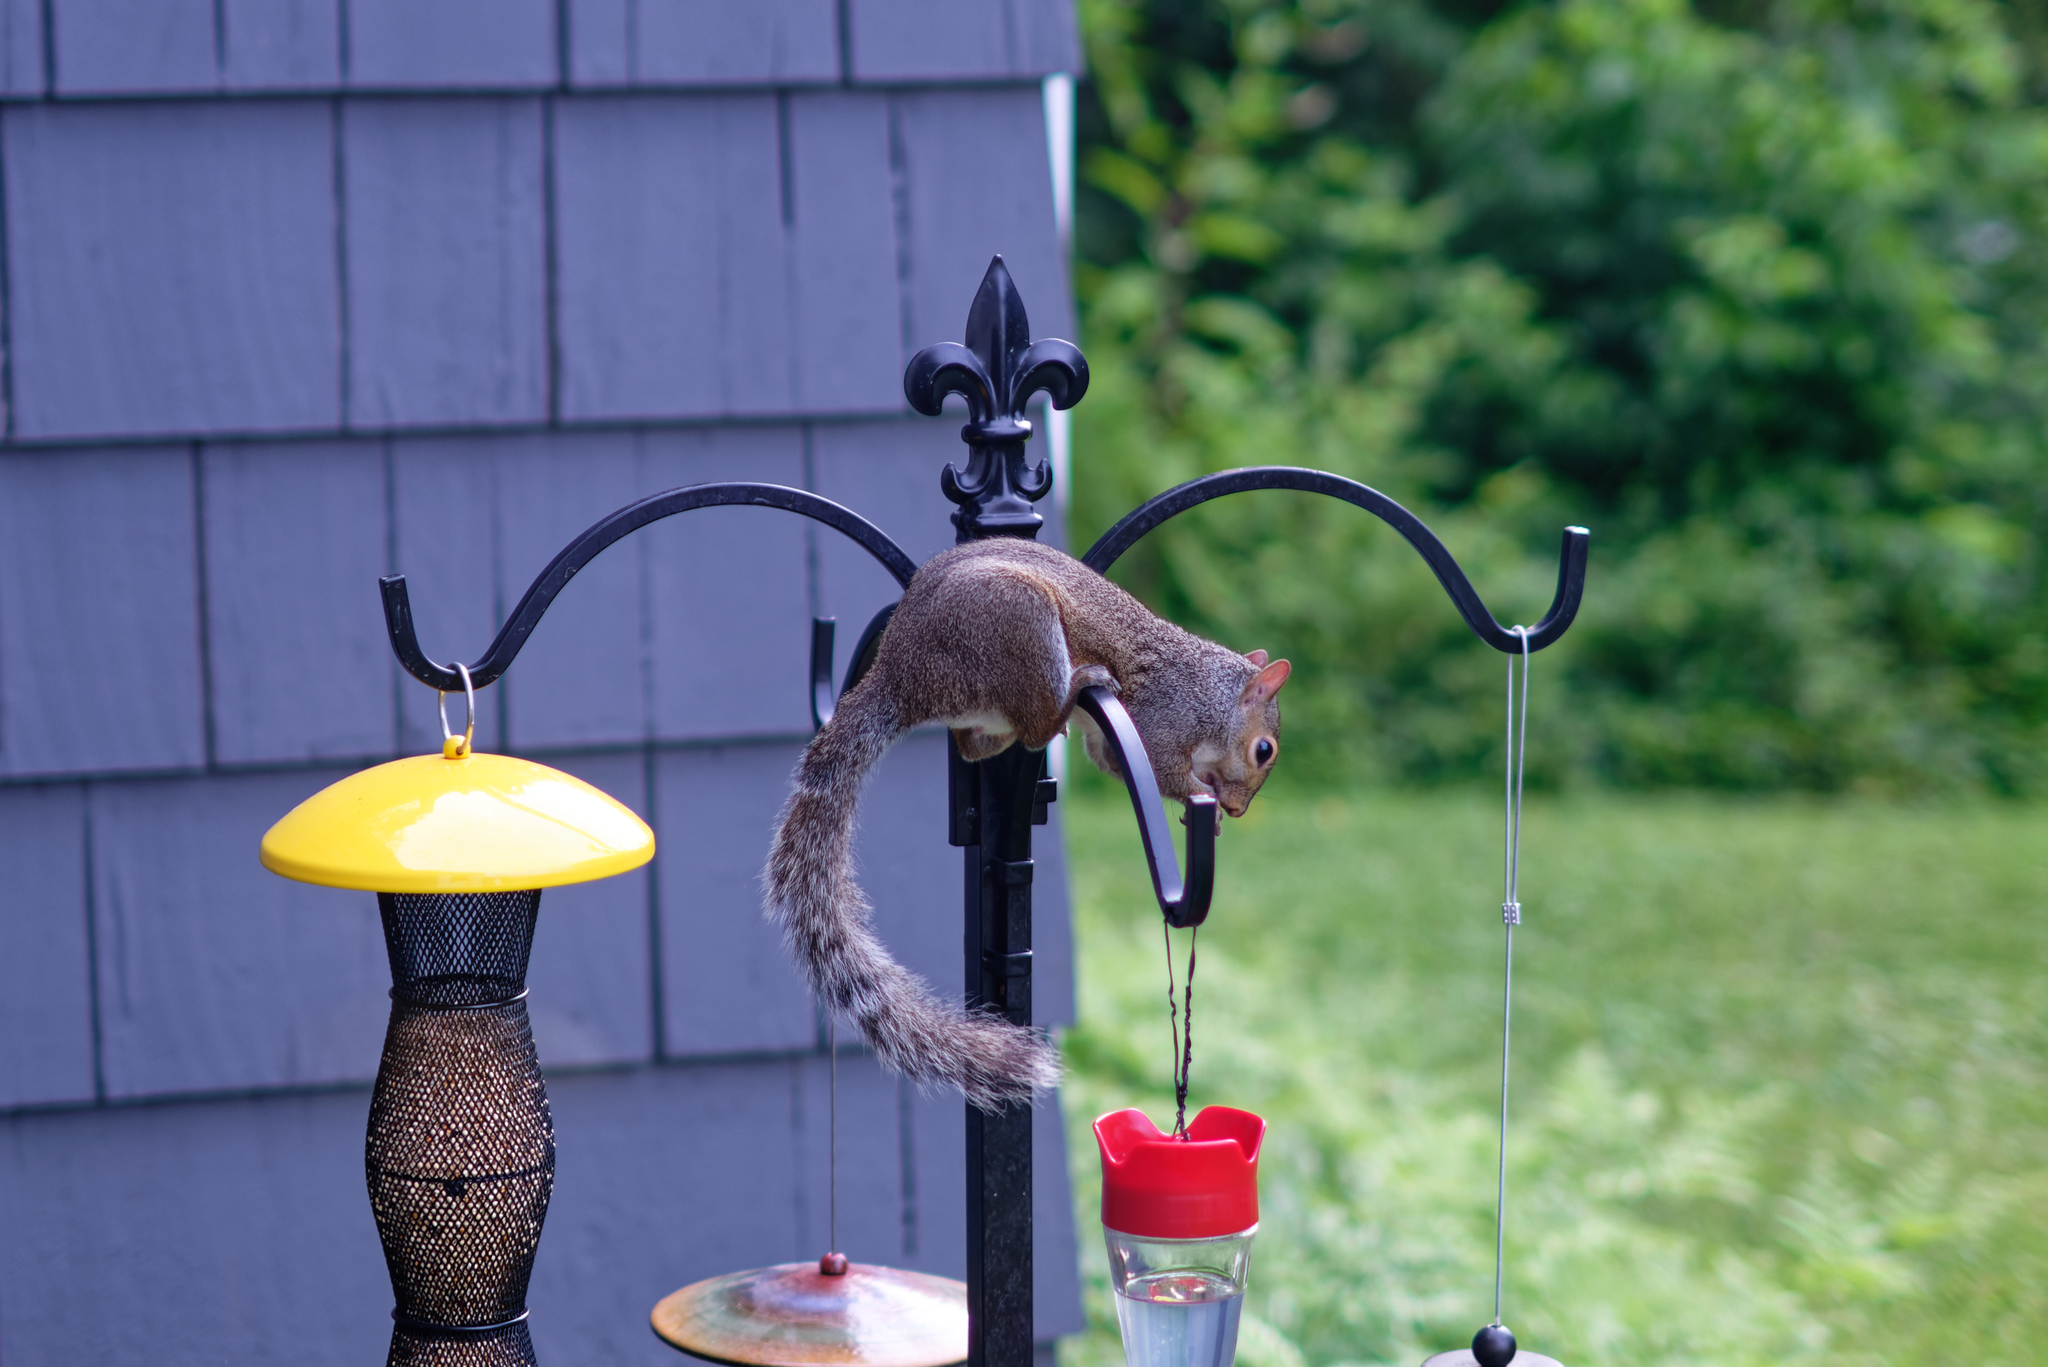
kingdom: Animalia
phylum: Chordata
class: Mammalia
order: Rodentia
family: Sciuridae
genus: Sciurus
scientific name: Sciurus carolinensis
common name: Eastern gray squirrel
